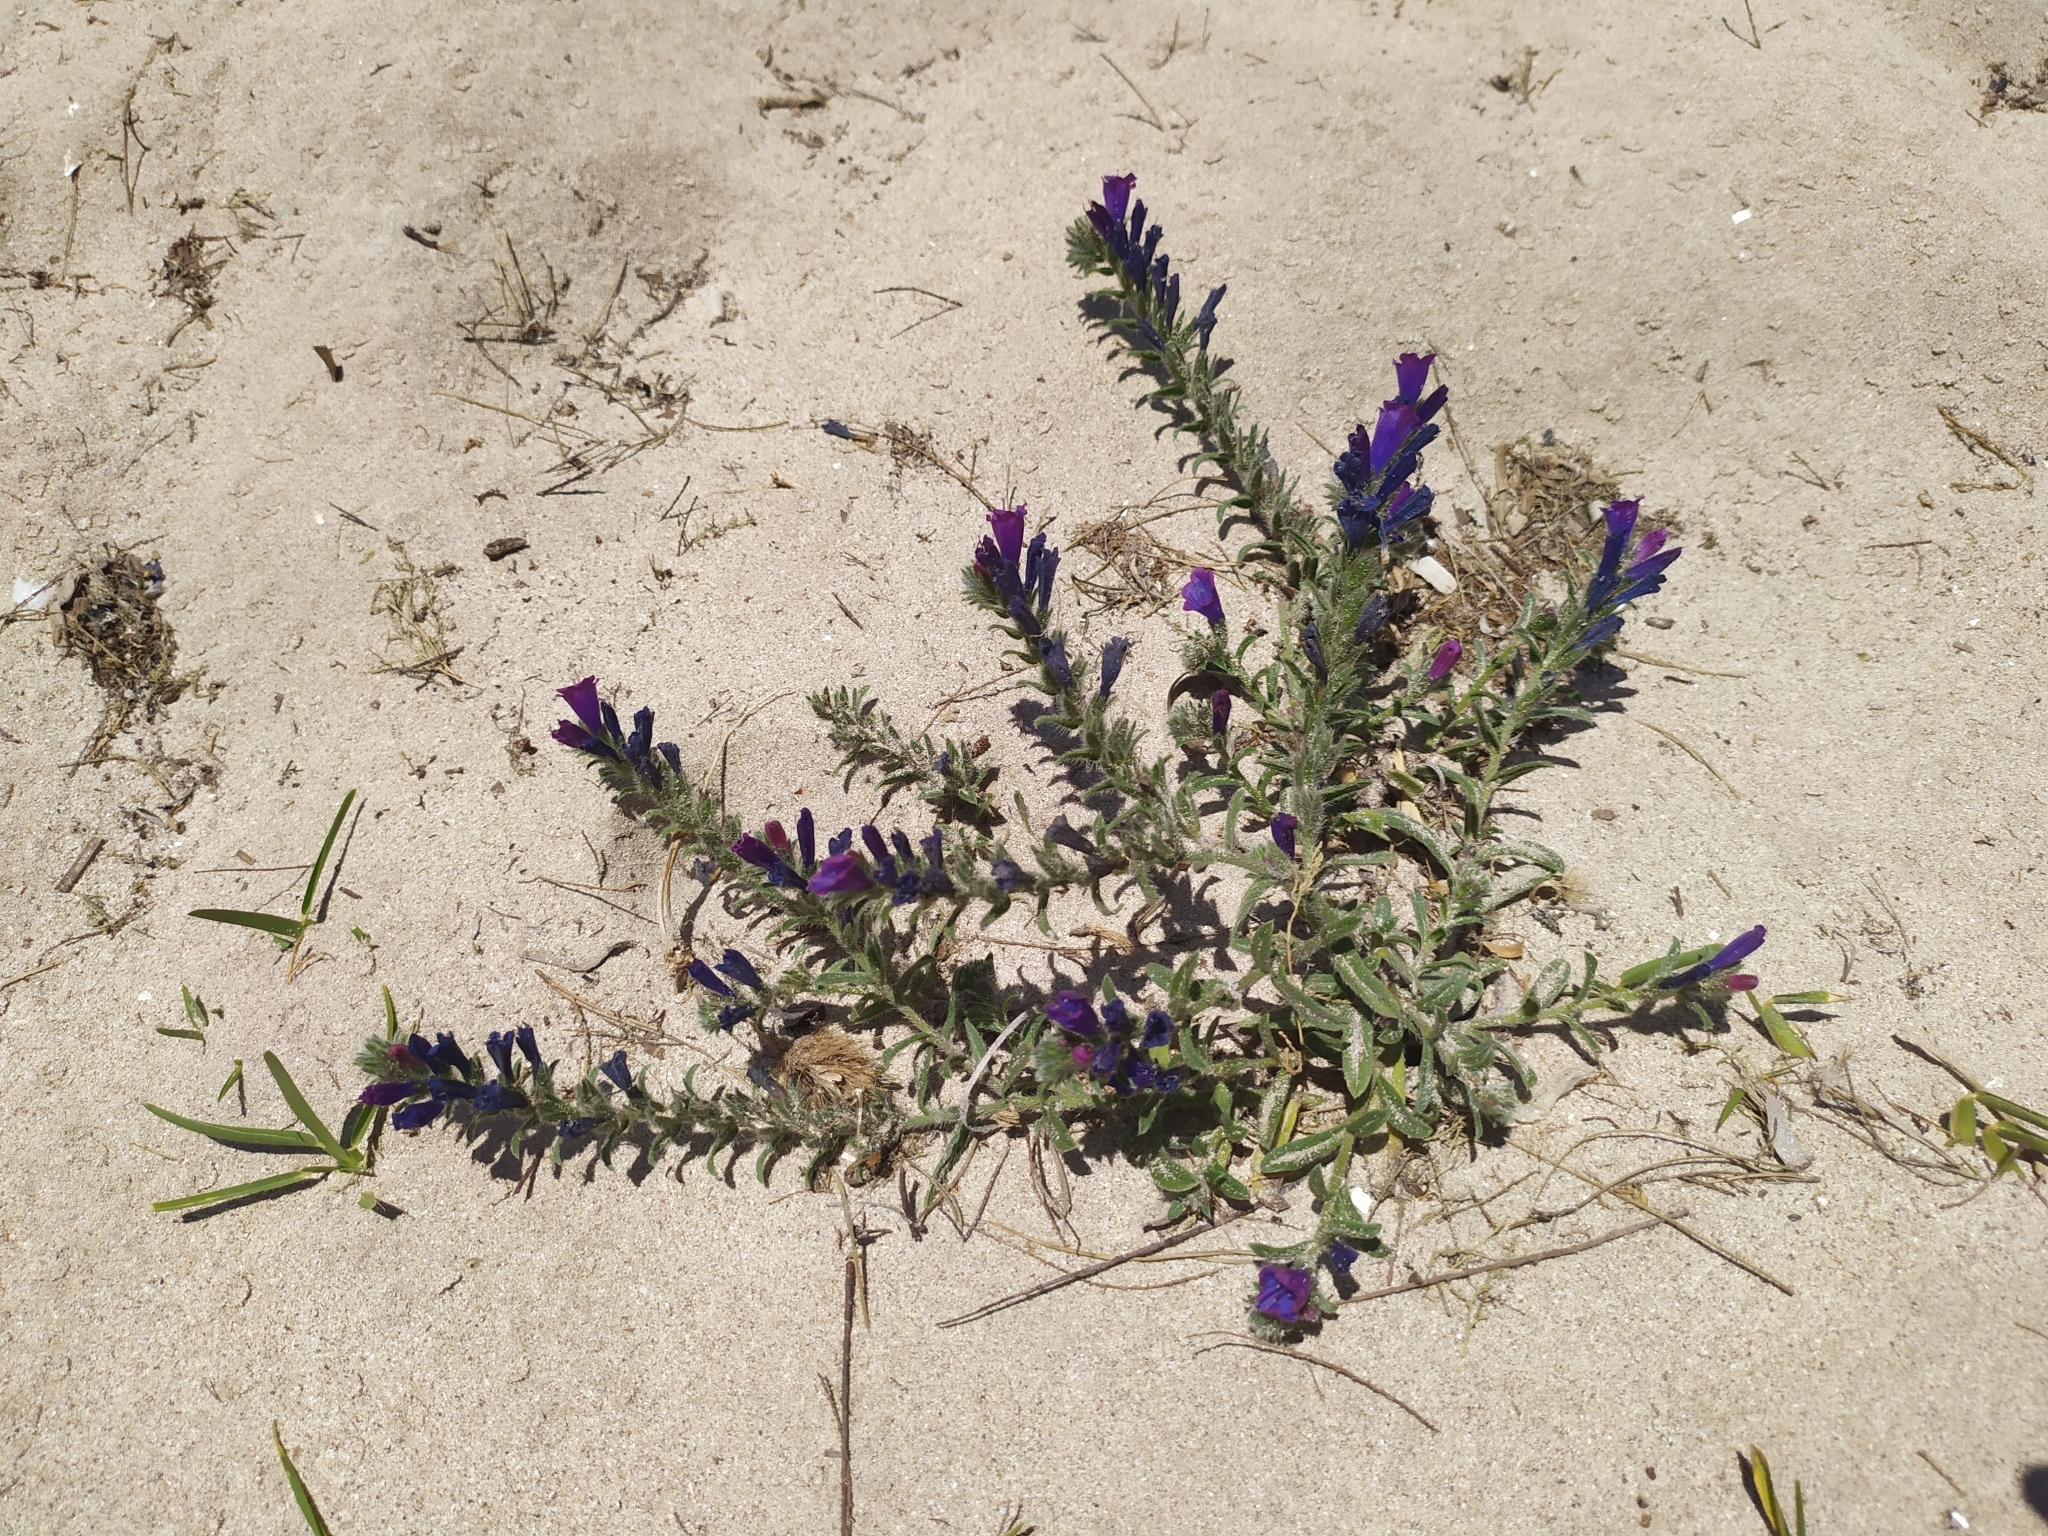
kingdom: Plantae
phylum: Tracheophyta
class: Magnoliopsida
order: Boraginales
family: Boraginaceae
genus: Echium
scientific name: Echium sabulicola
